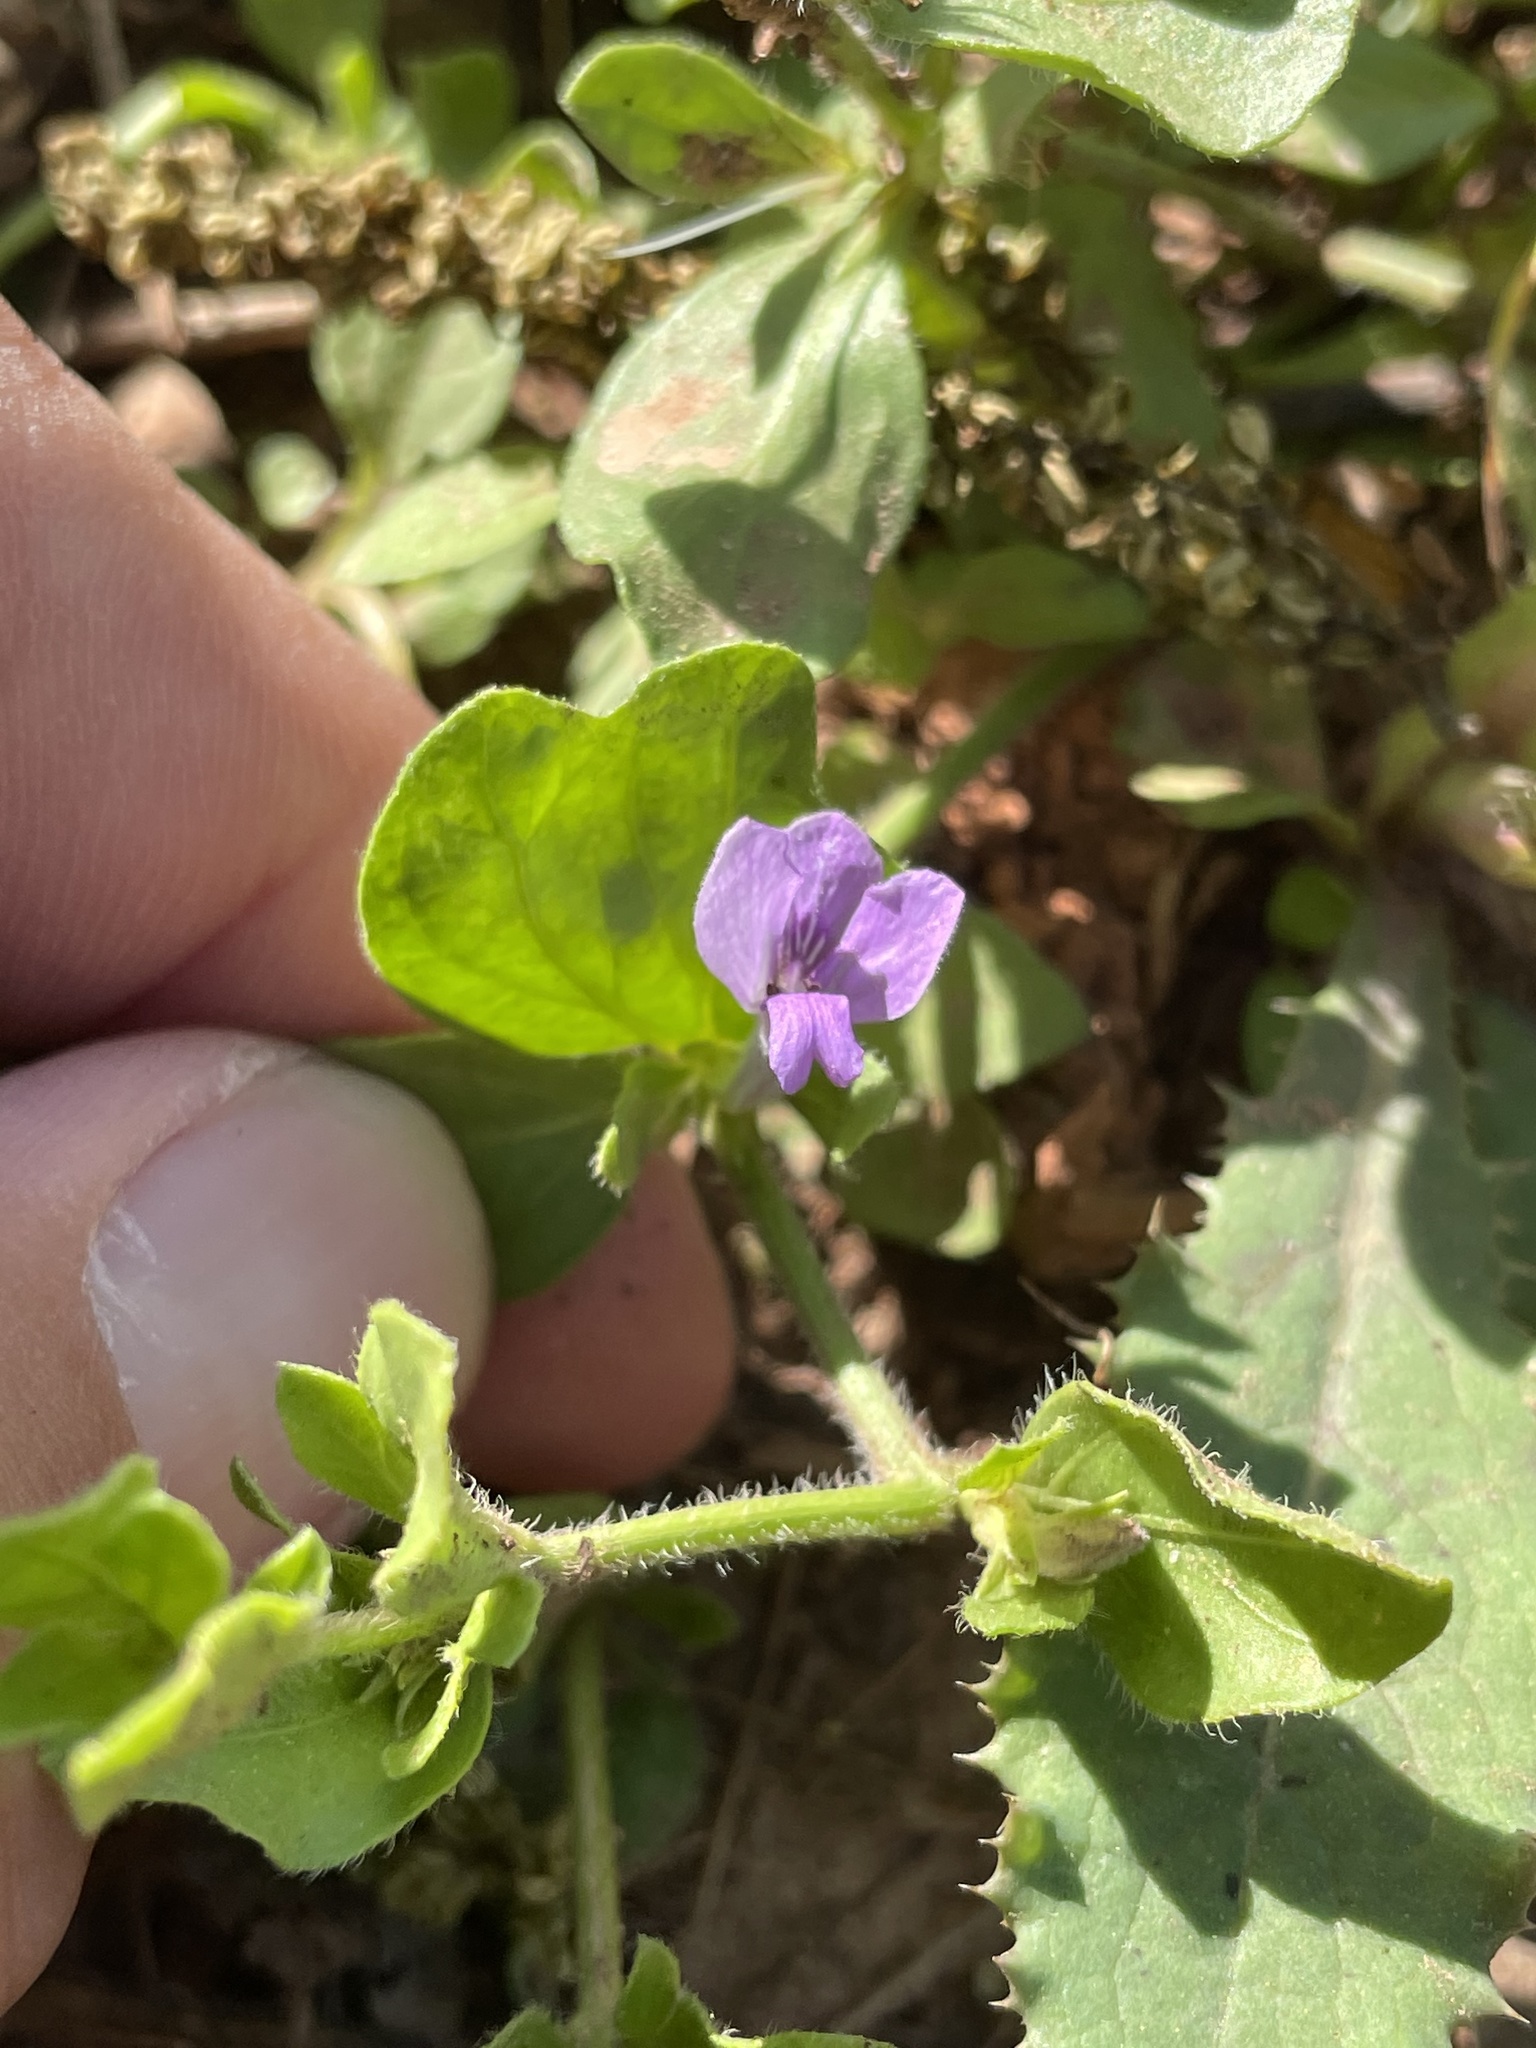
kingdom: Plantae
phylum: Tracheophyta
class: Magnoliopsida
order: Lamiales
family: Acanthaceae
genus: Justicia
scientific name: Justicia pilosella
